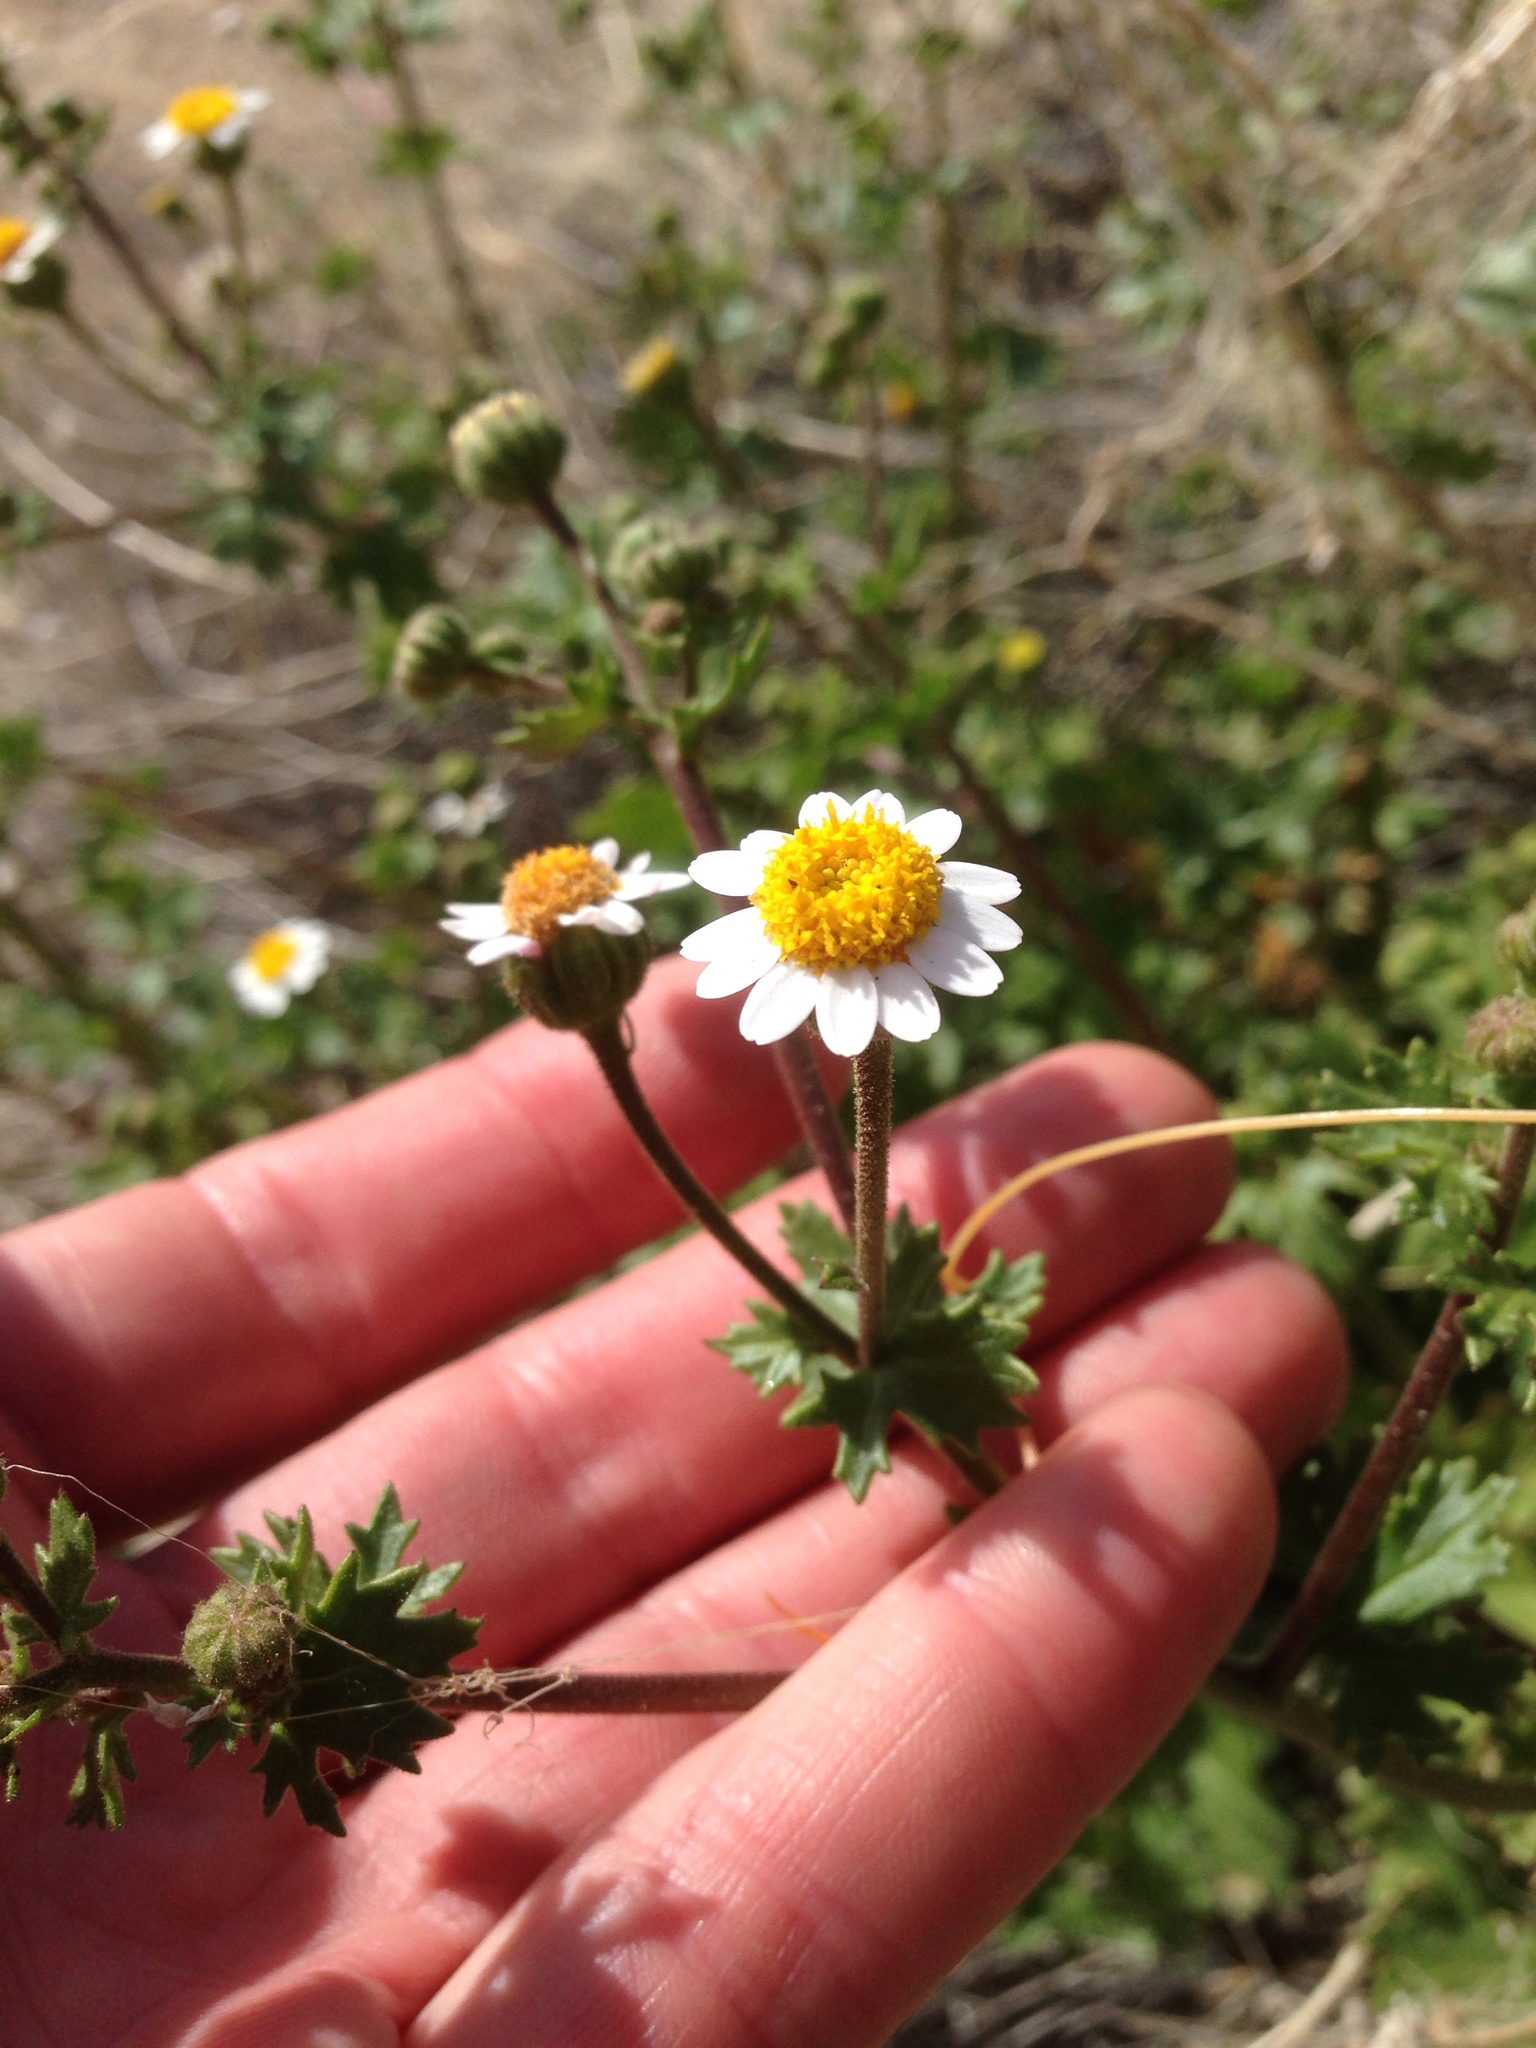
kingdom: Plantae
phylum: Tracheophyta
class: Magnoliopsida
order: Asterales
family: Asteraceae
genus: Laphamia
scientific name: Laphamia emoryi
